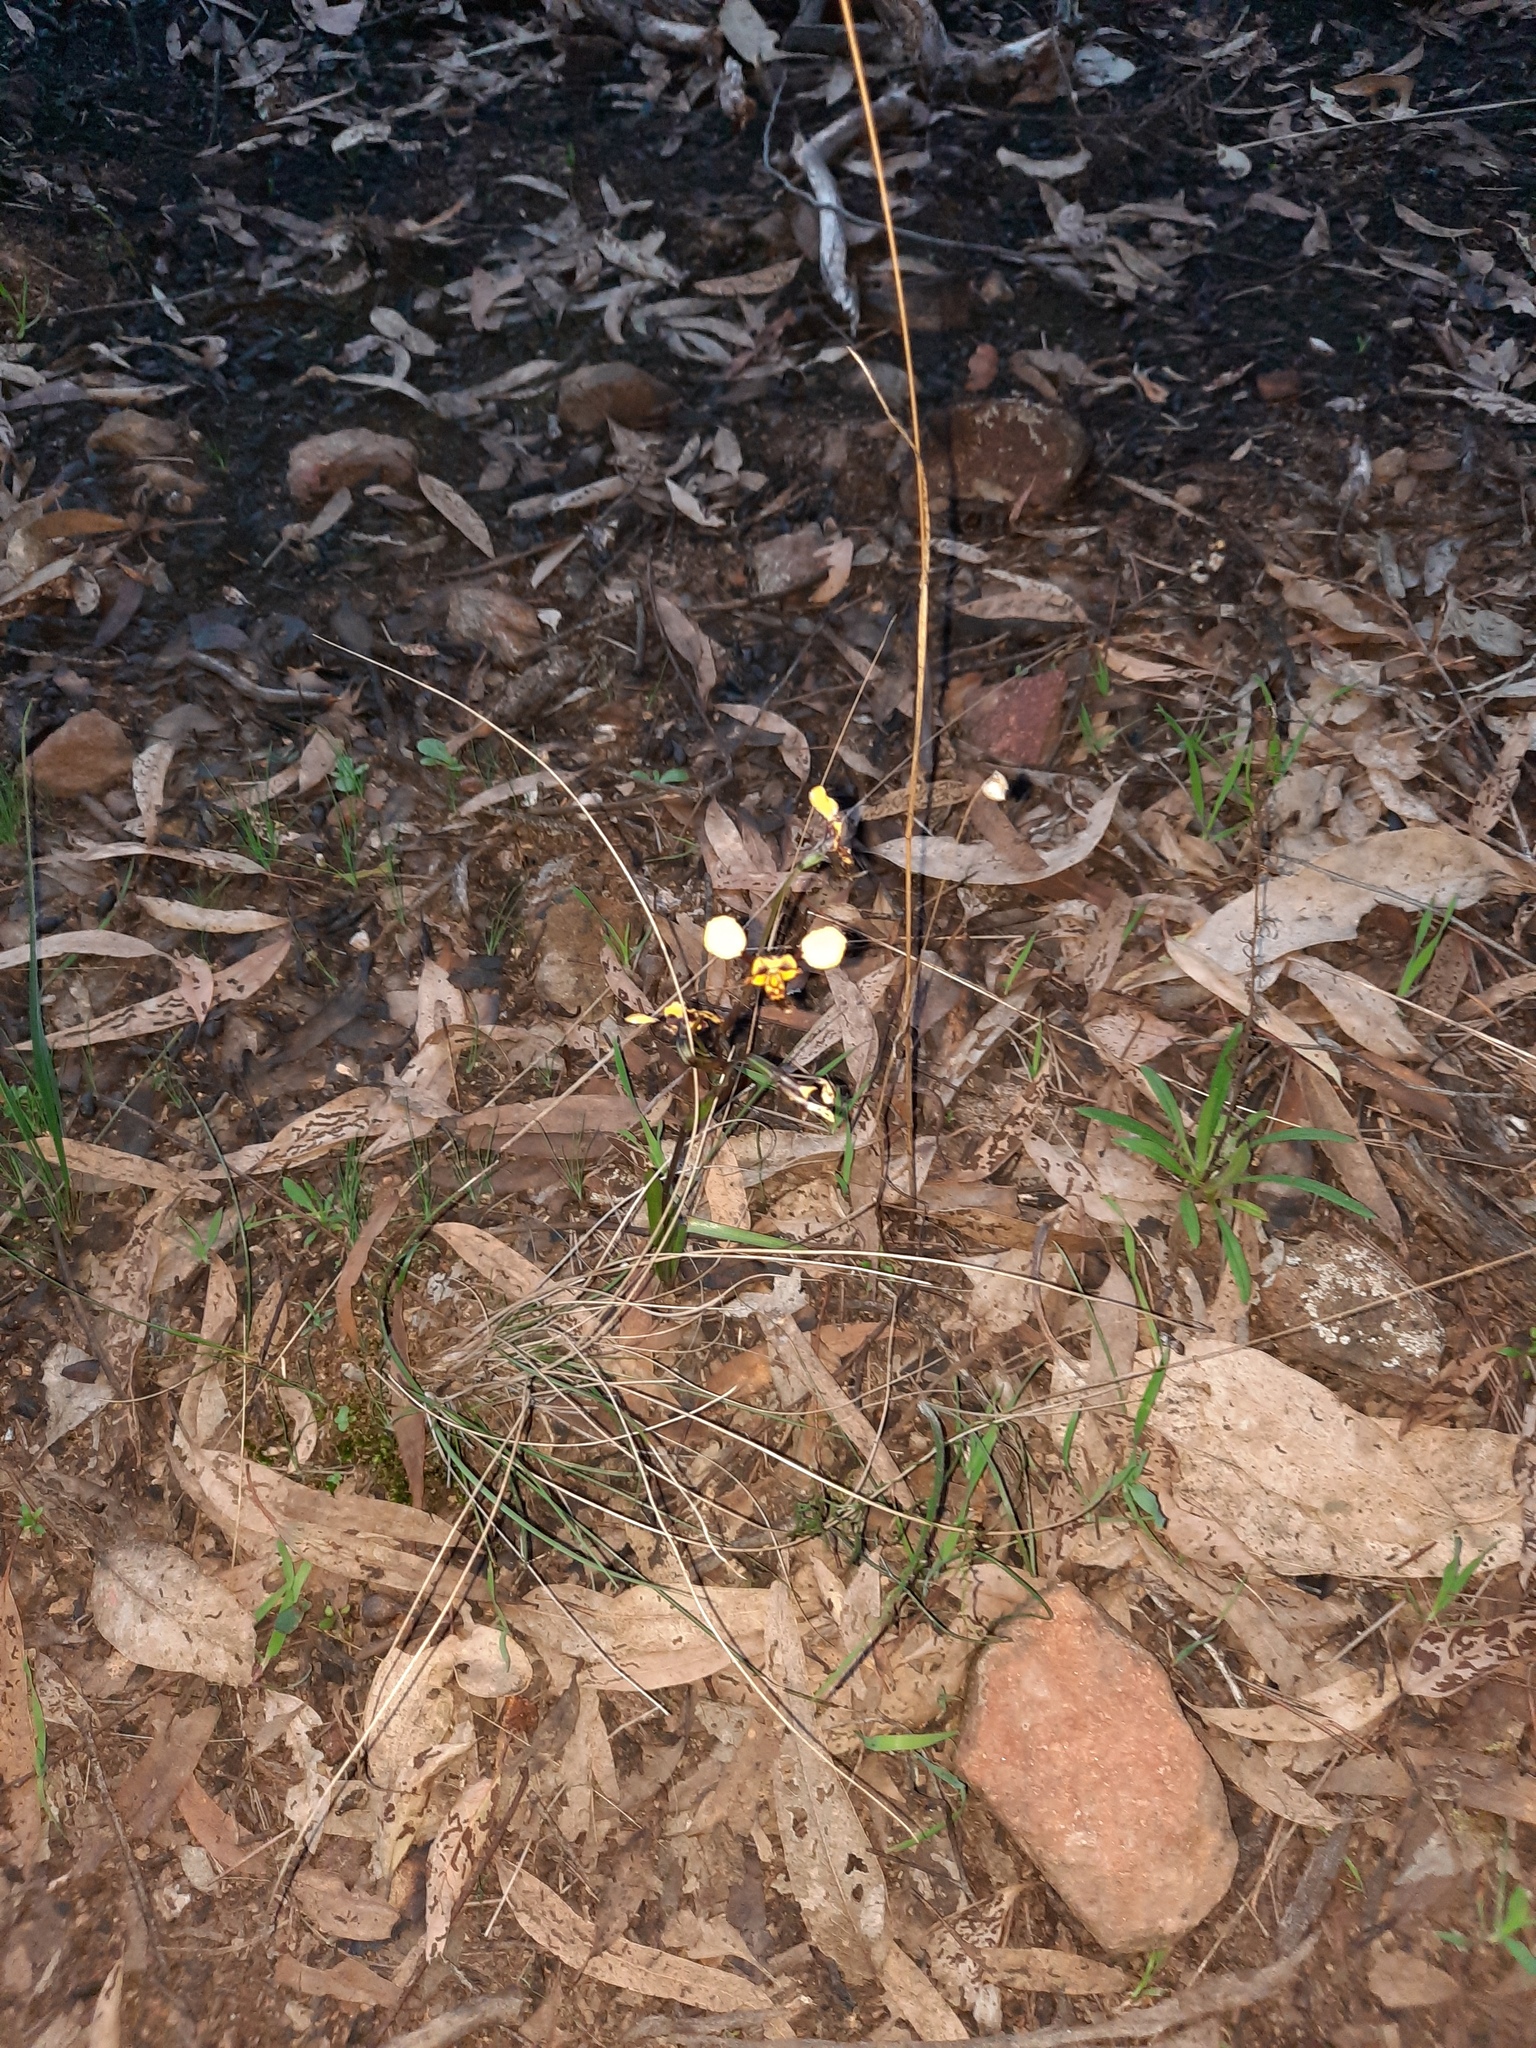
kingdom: Plantae
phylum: Tracheophyta
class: Liliopsida
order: Asparagales
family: Orchidaceae
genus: Diuris
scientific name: Diuris pardina
